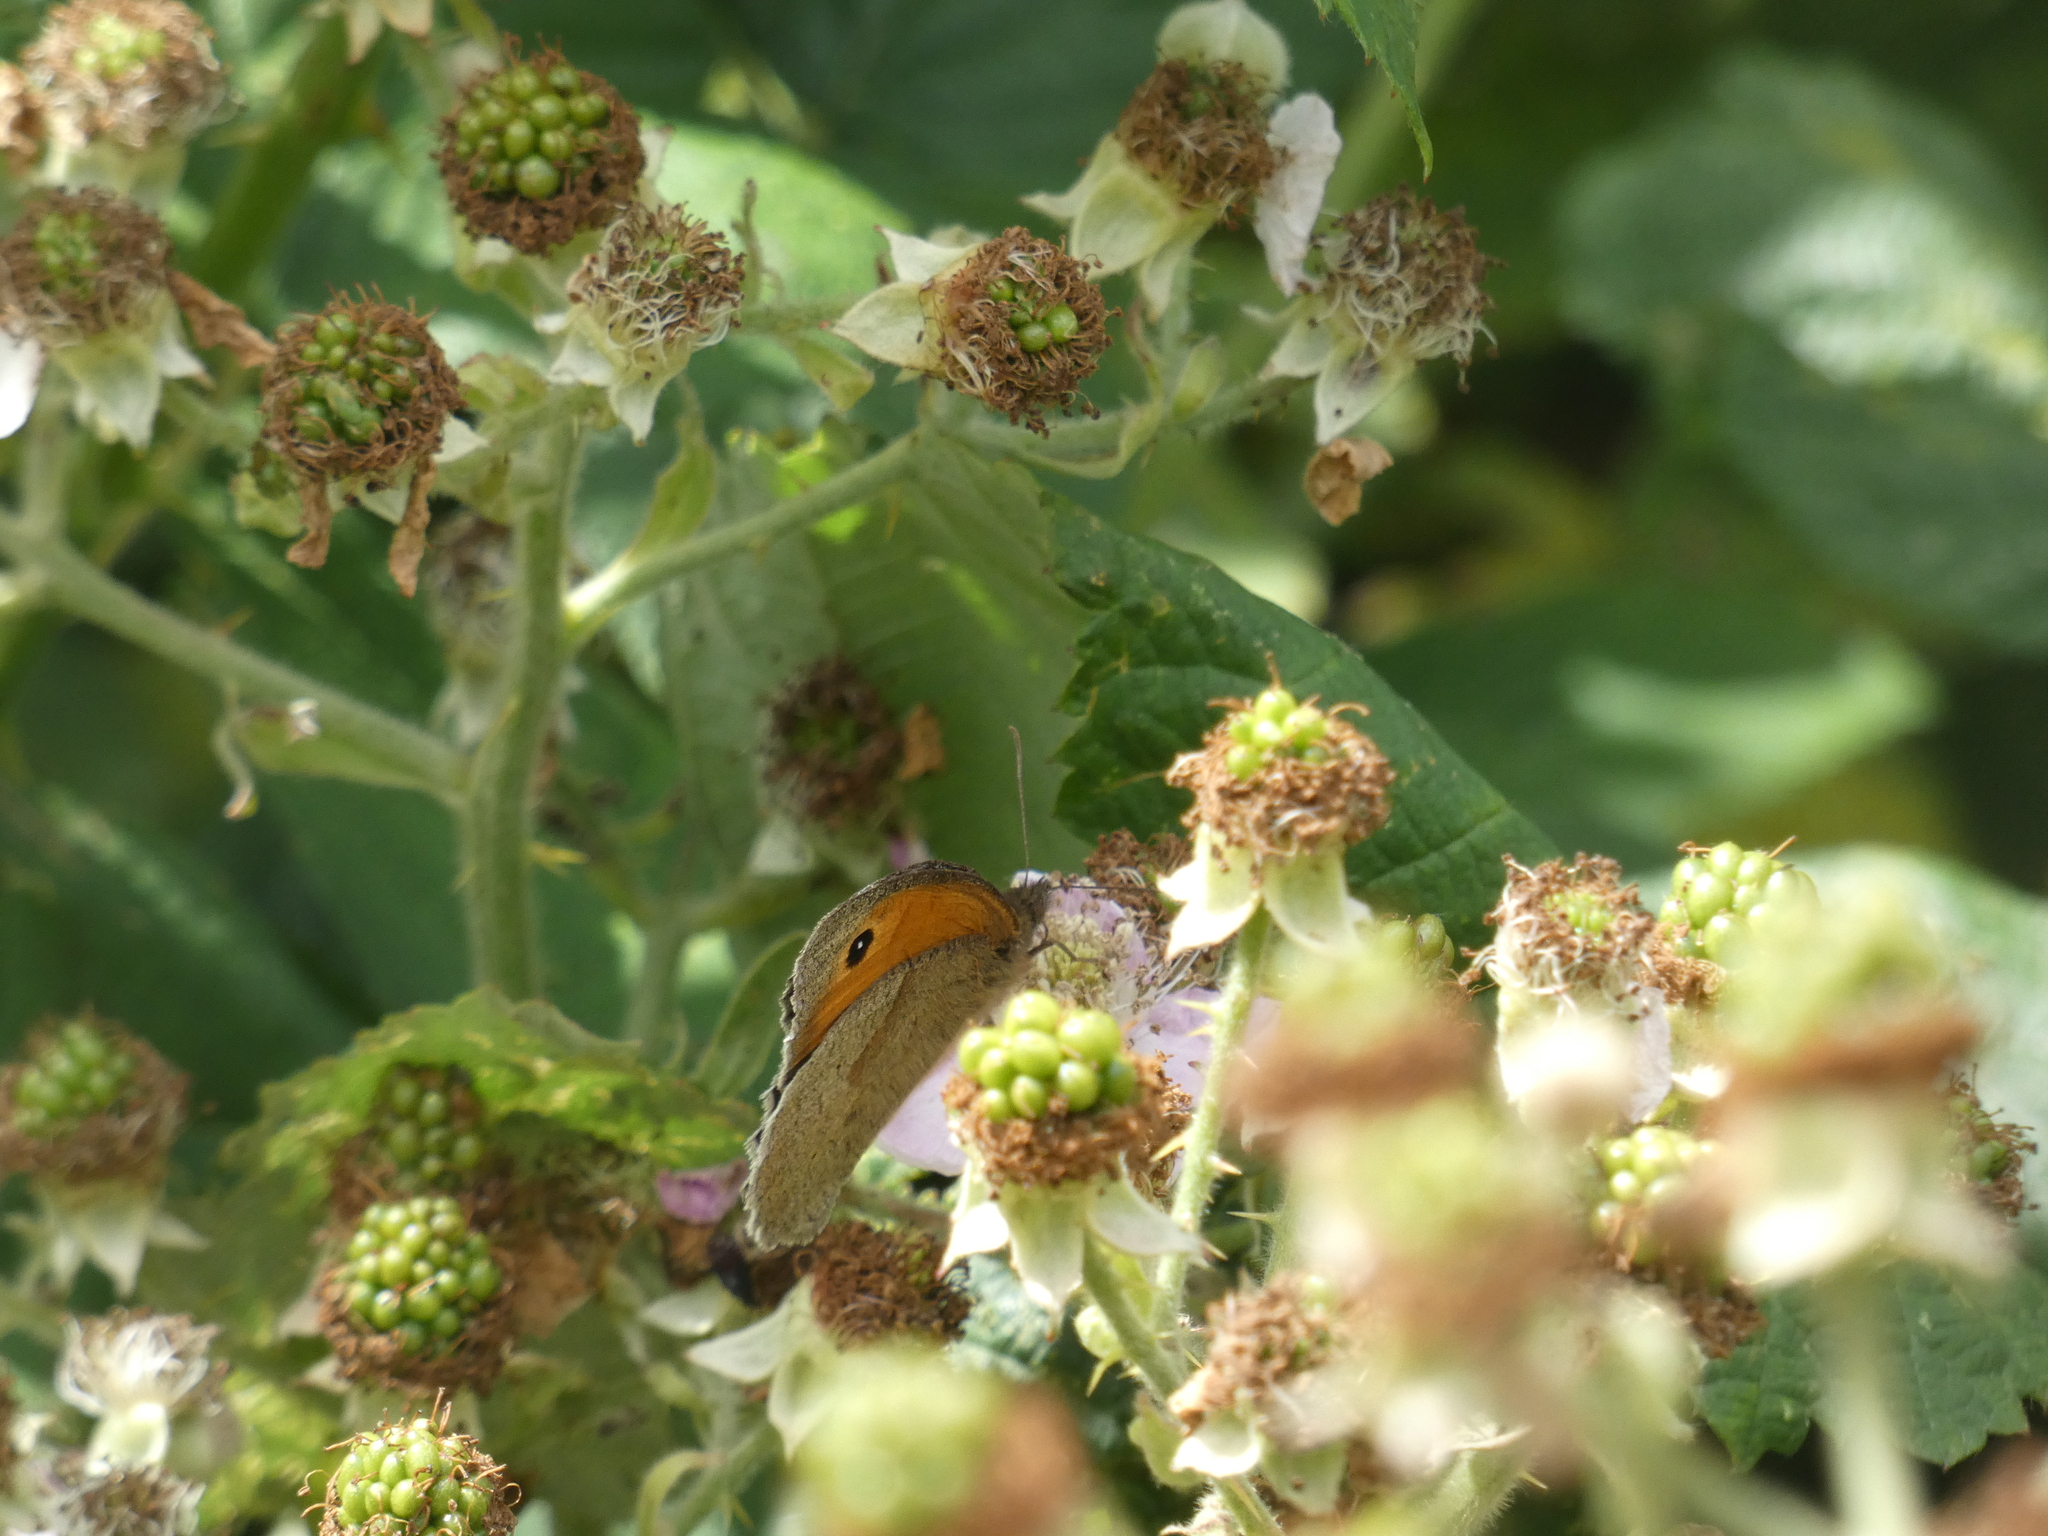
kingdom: Animalia
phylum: Arthropoda
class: Insecta
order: Lepidoptera
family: Nymphalidae
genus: Maniola
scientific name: Maniola jurtina
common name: Meadow brown
